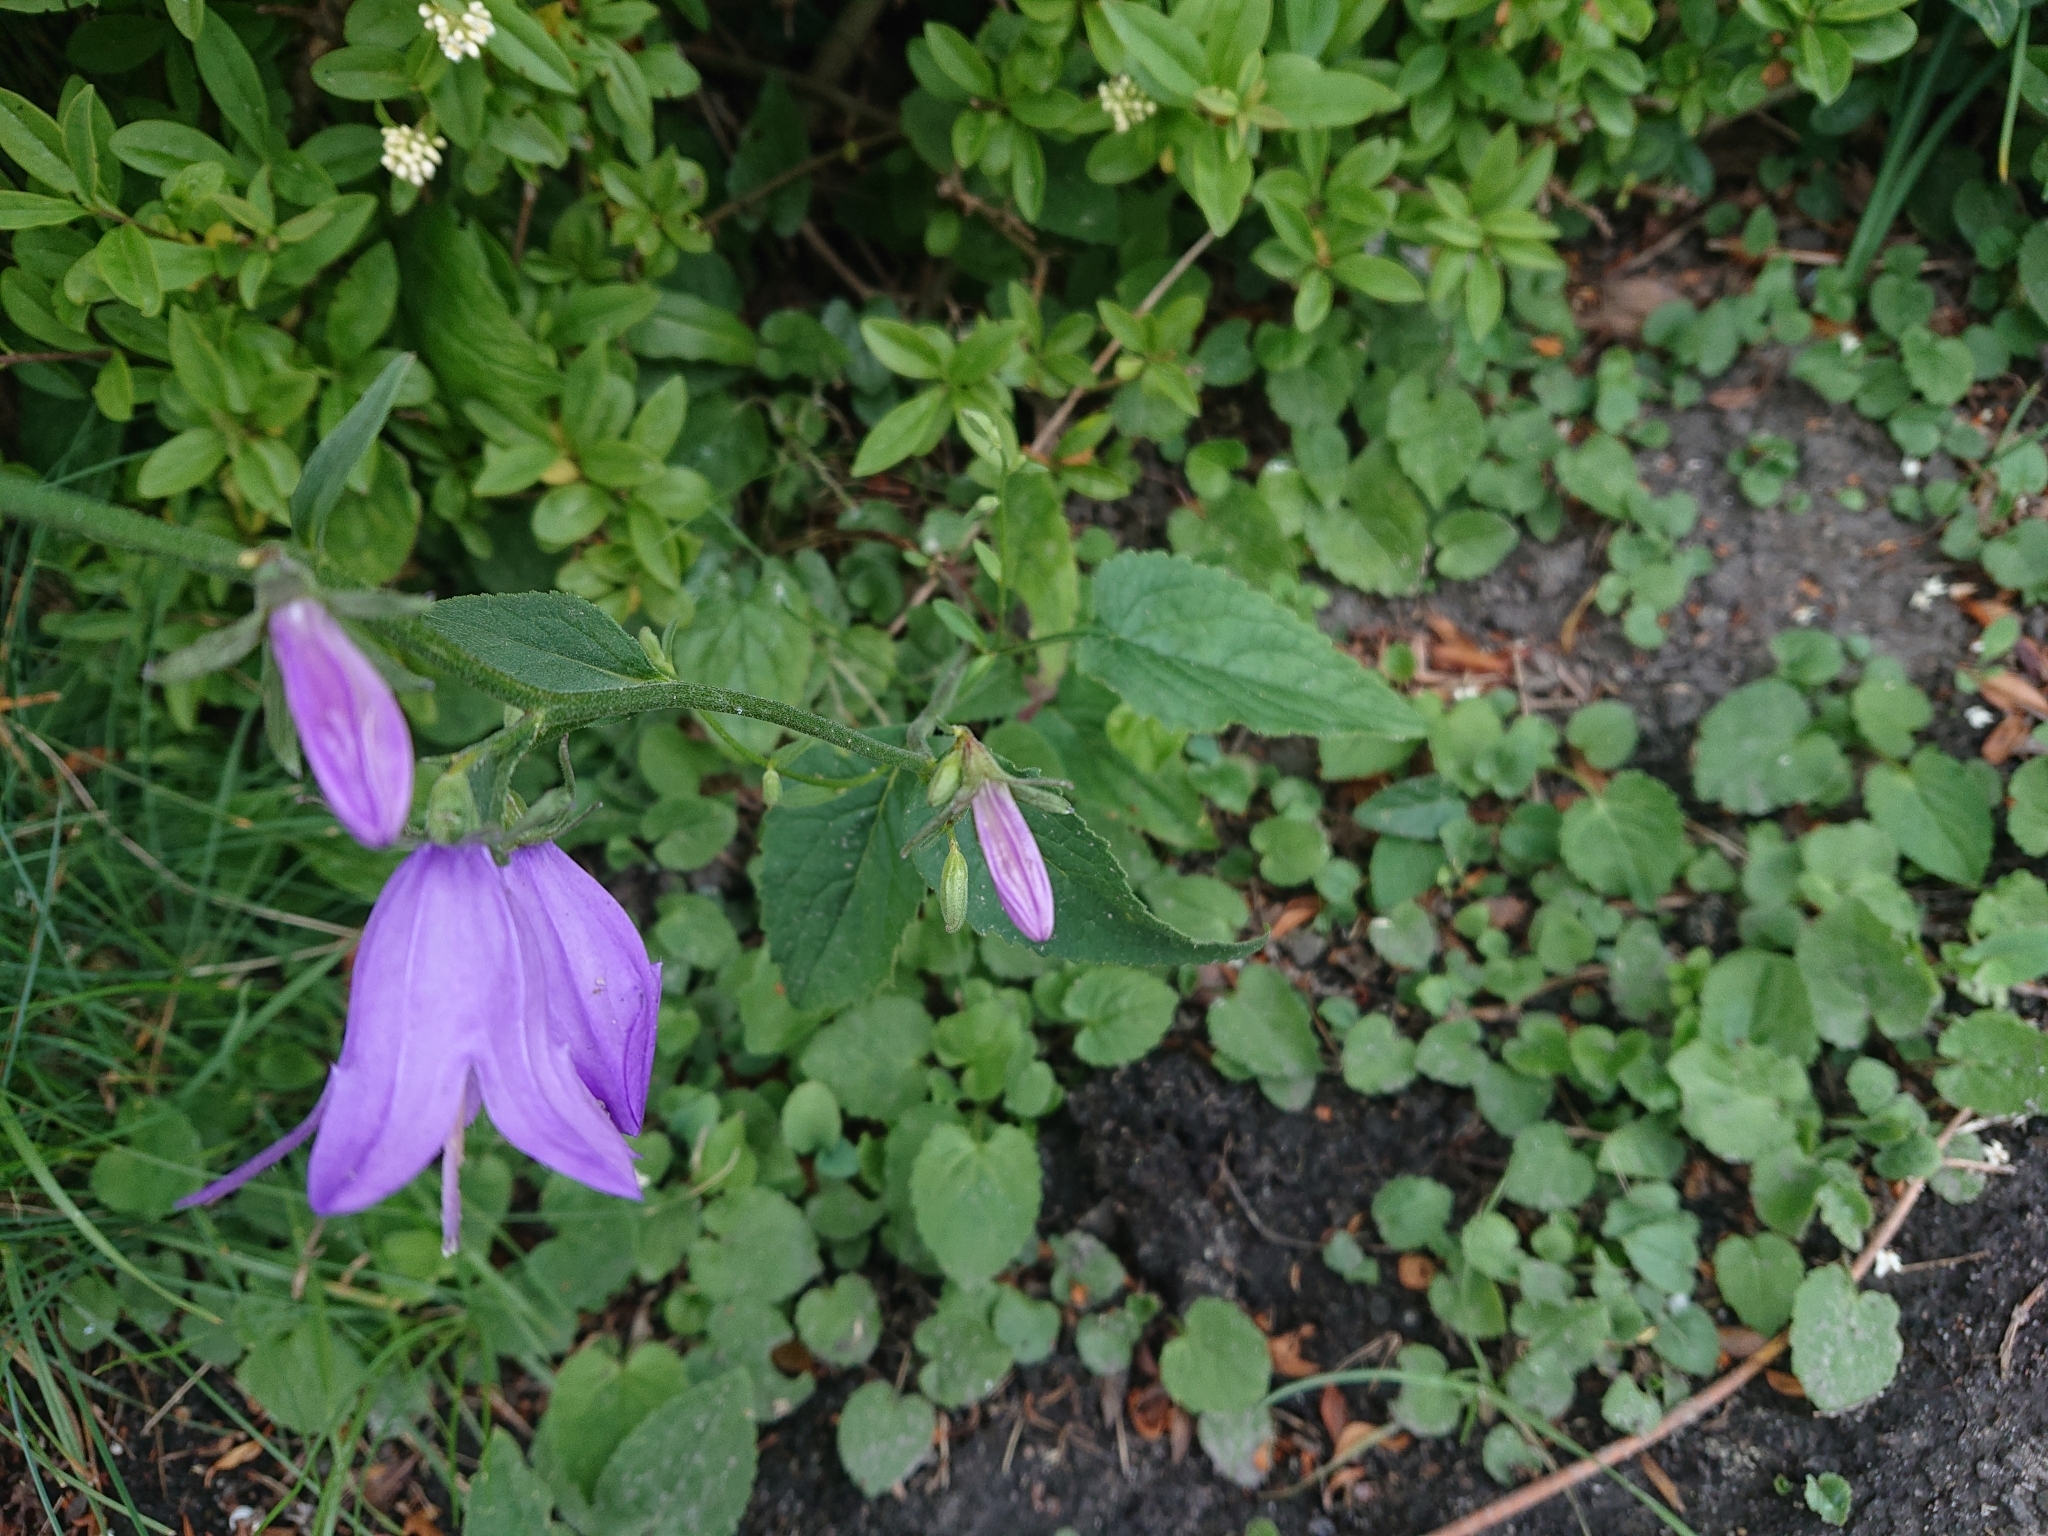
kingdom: Plantae
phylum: Tracheophyta
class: Magnoliopsida
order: Asterales
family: Campanulaceae
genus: Campanula
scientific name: Campanula rapunculoides
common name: Creeping bellflower
